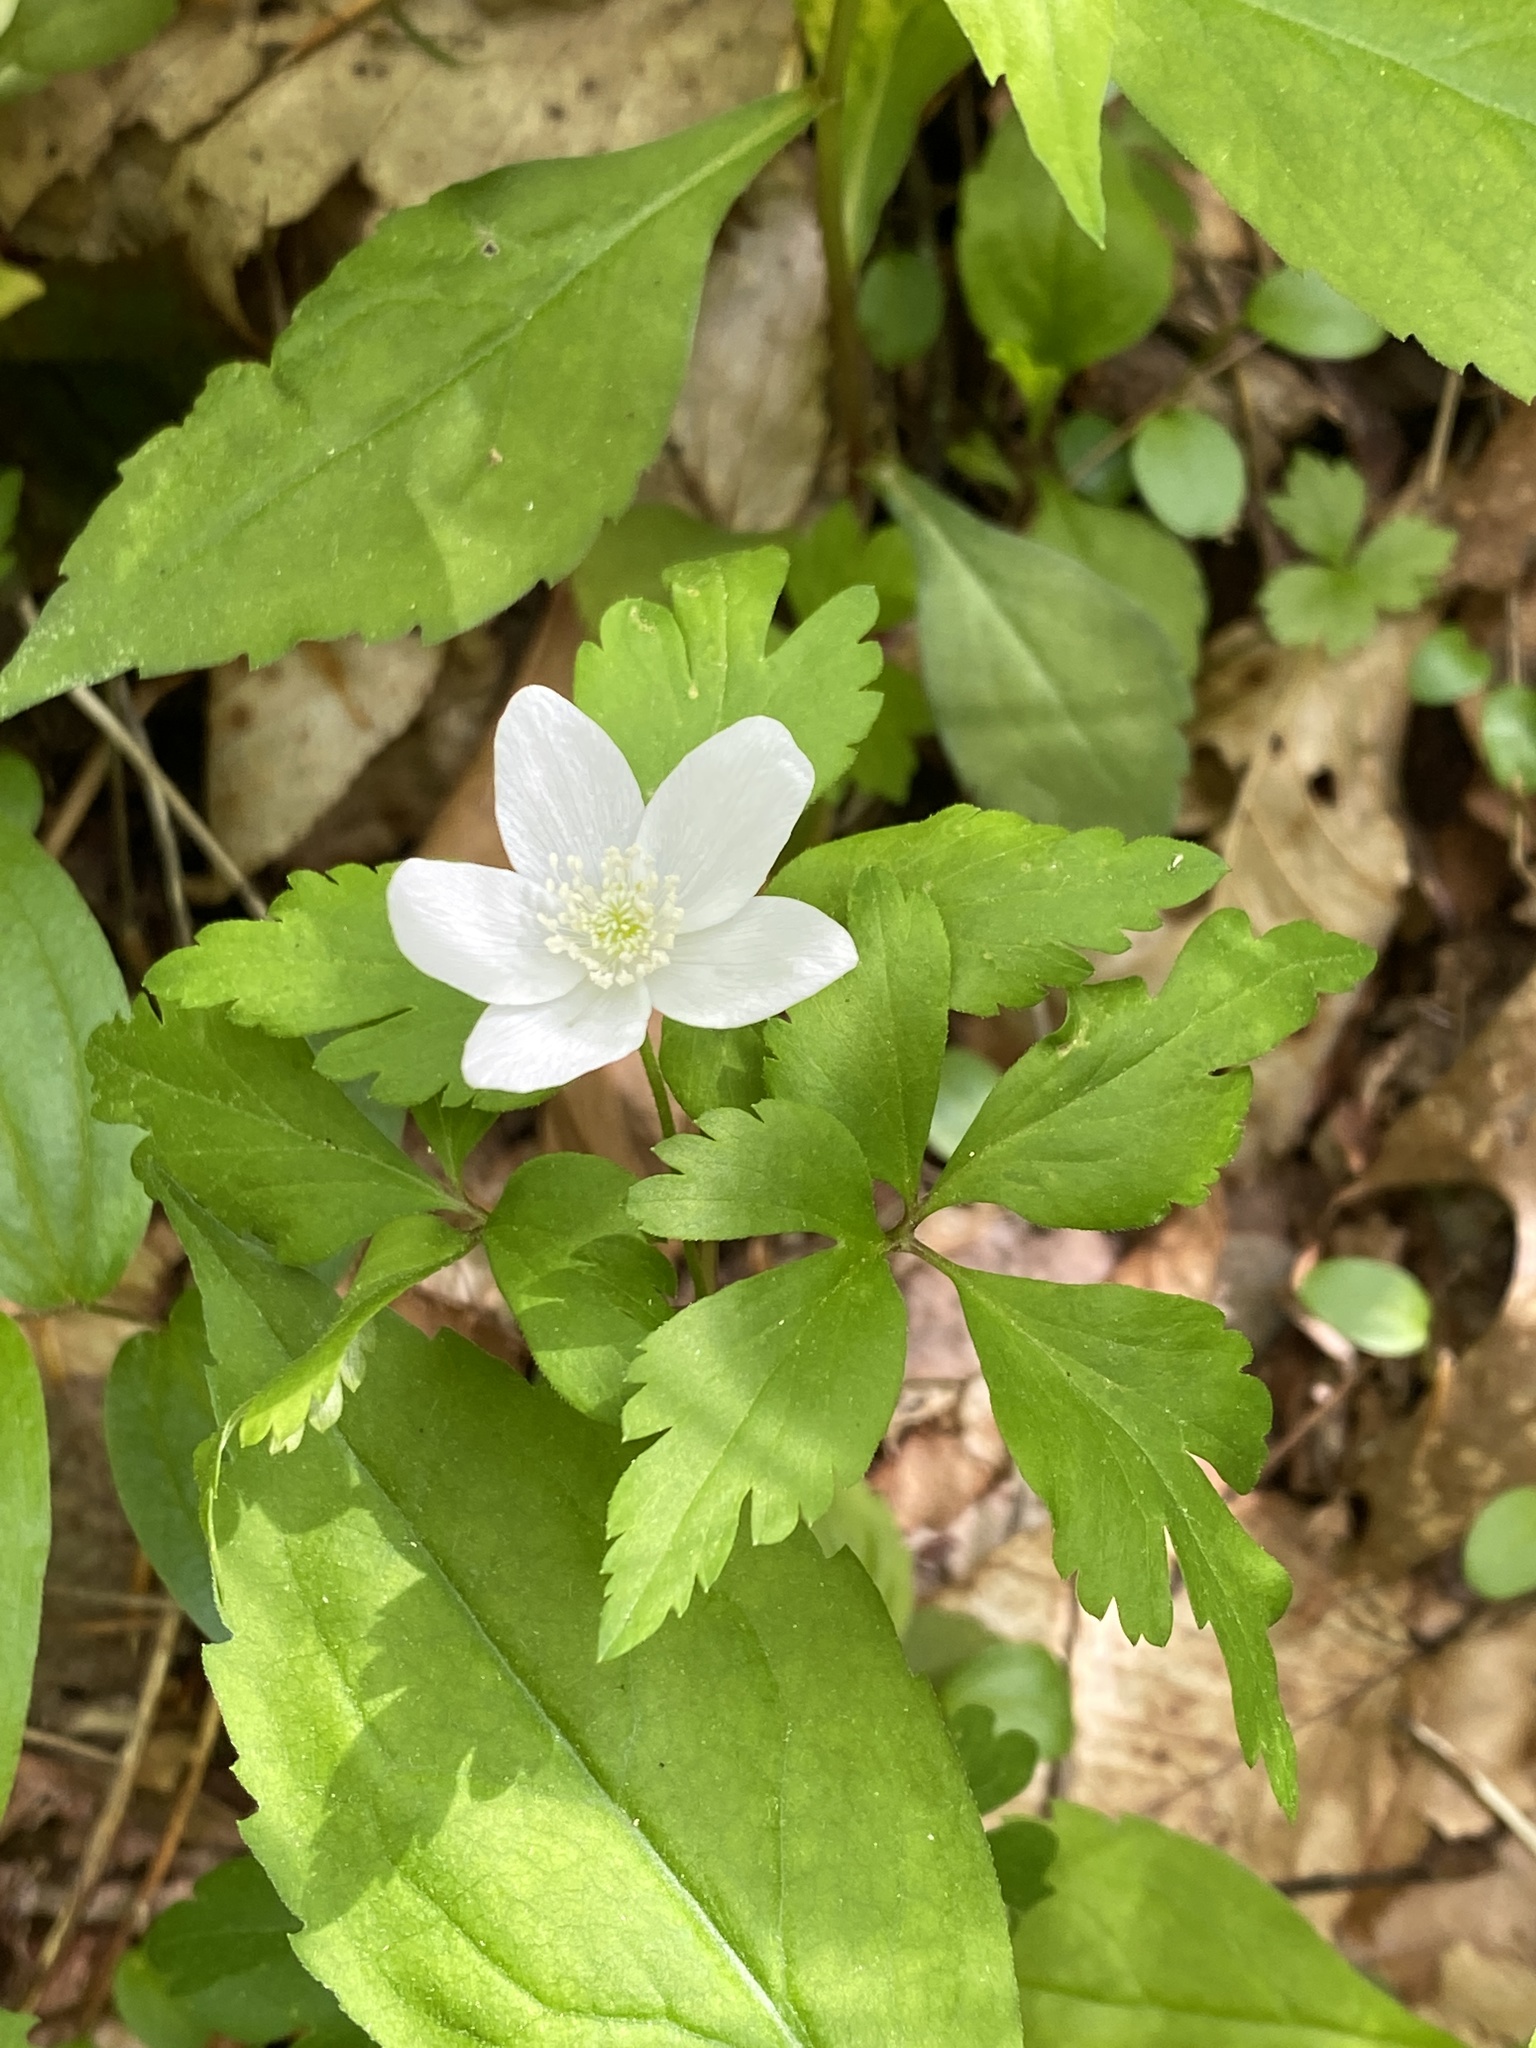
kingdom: Plantae
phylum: Tracheophyta
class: Magnoliopsida
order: Ranunculales
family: Ranunculaceae
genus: Anemone
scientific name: Anemone quinquefolia
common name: Wood anemone
